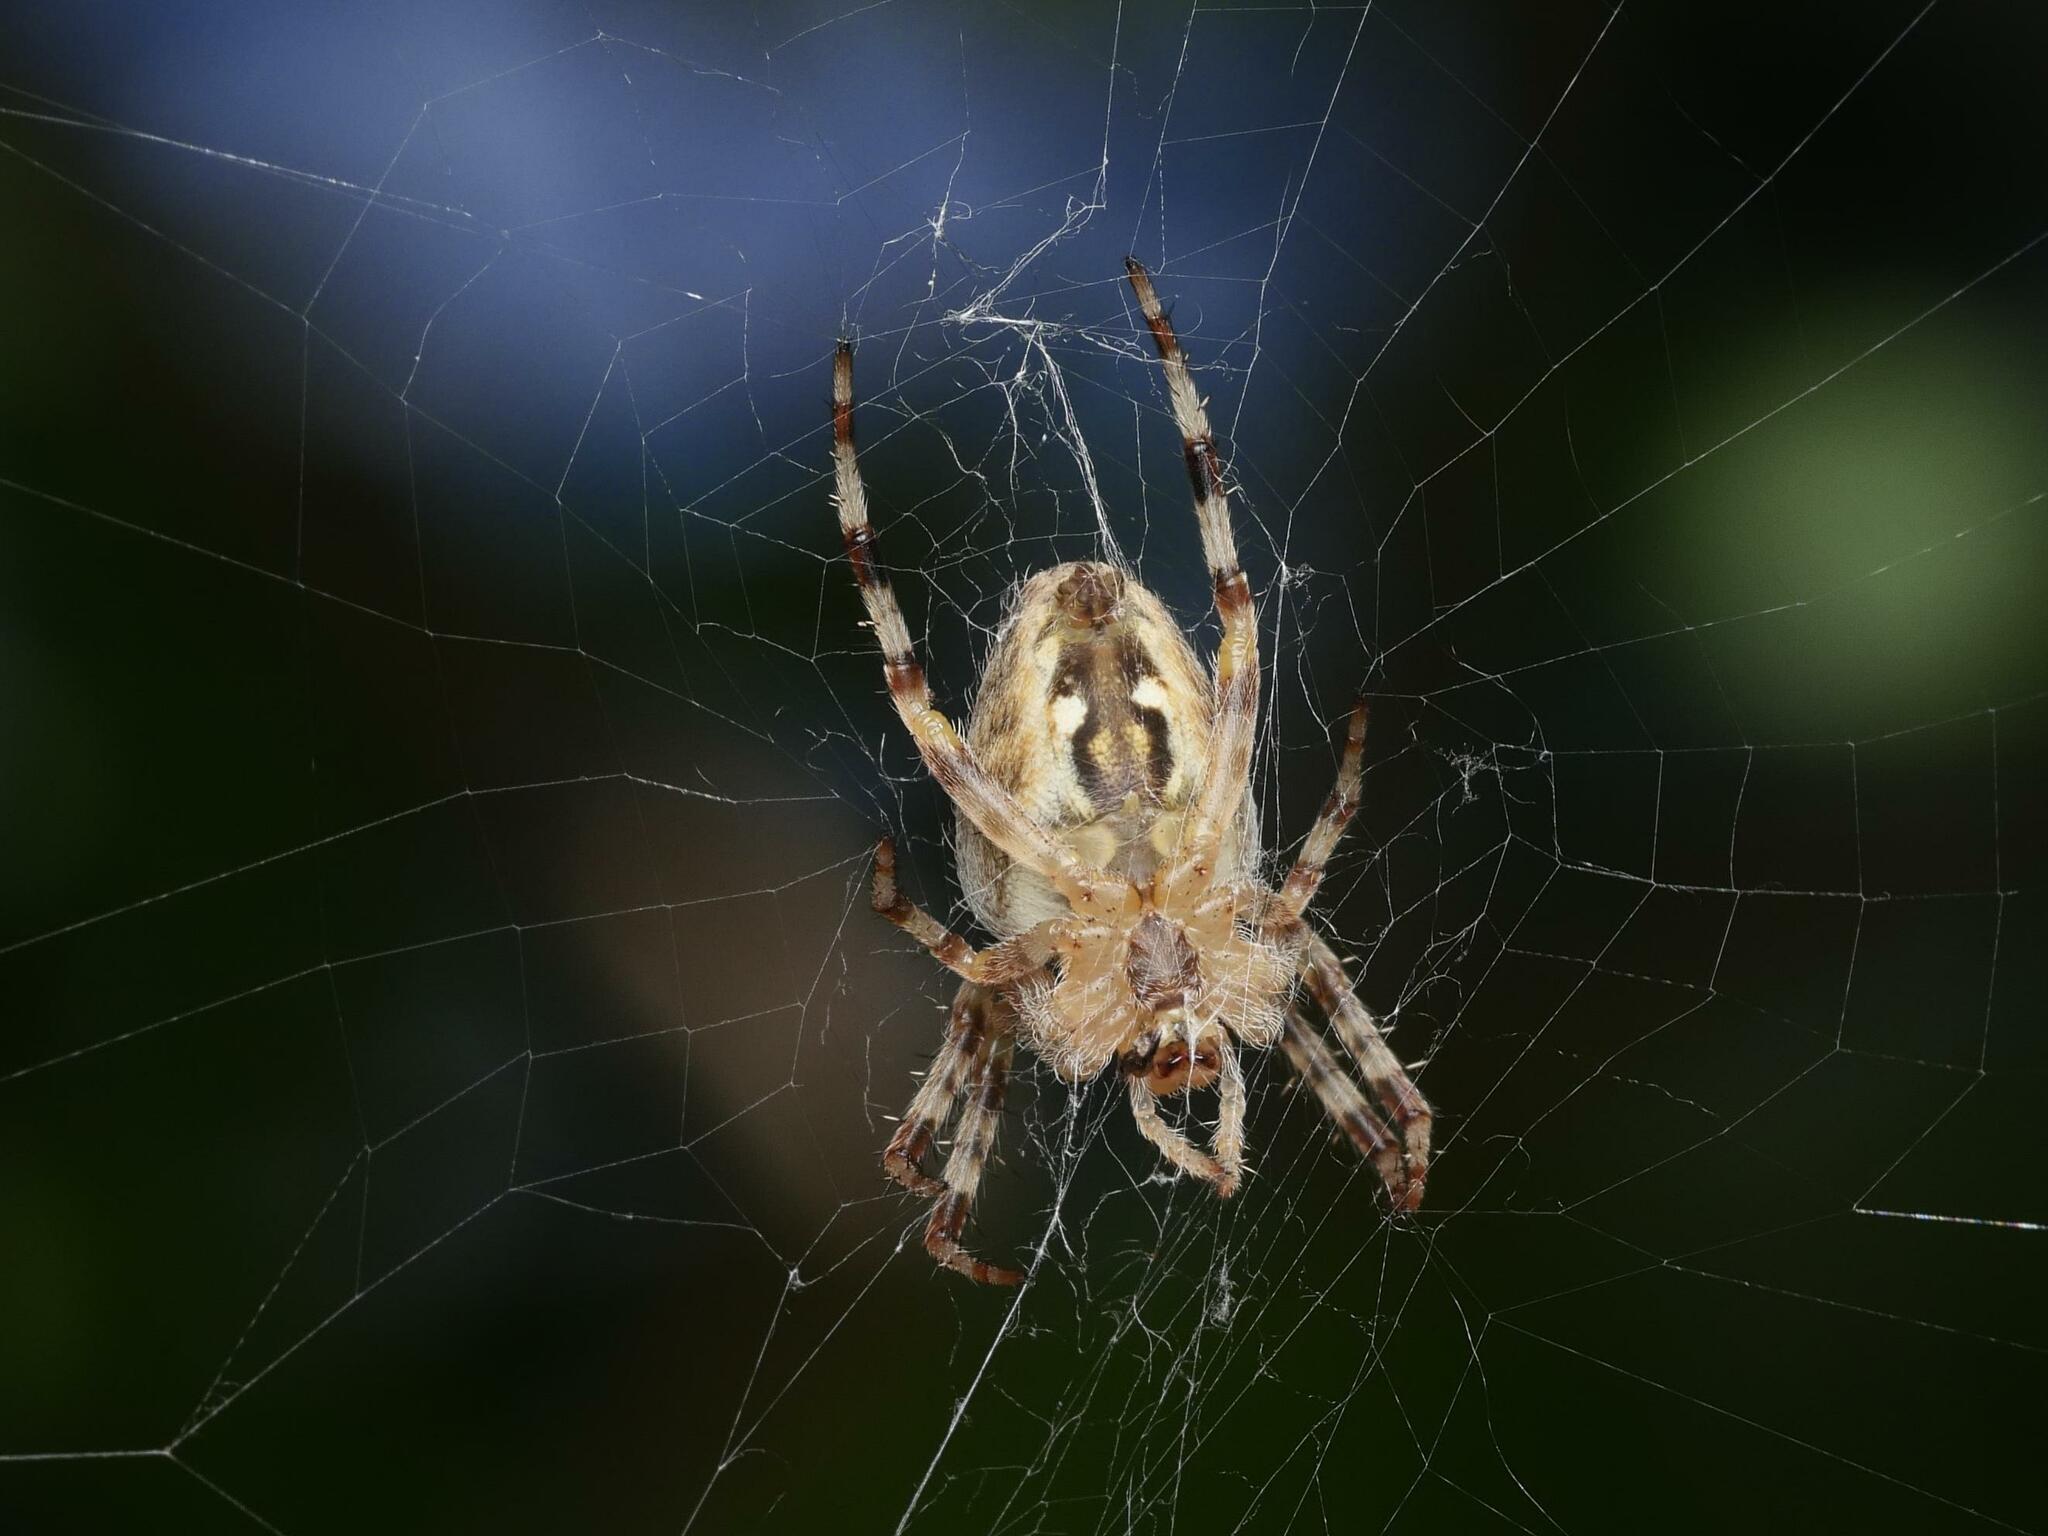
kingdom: Animalia
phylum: Arthropoda
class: Arachnida
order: Araneae
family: Araneidae
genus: Araneus
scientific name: Araneus diadematus
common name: Cross orbweaver
